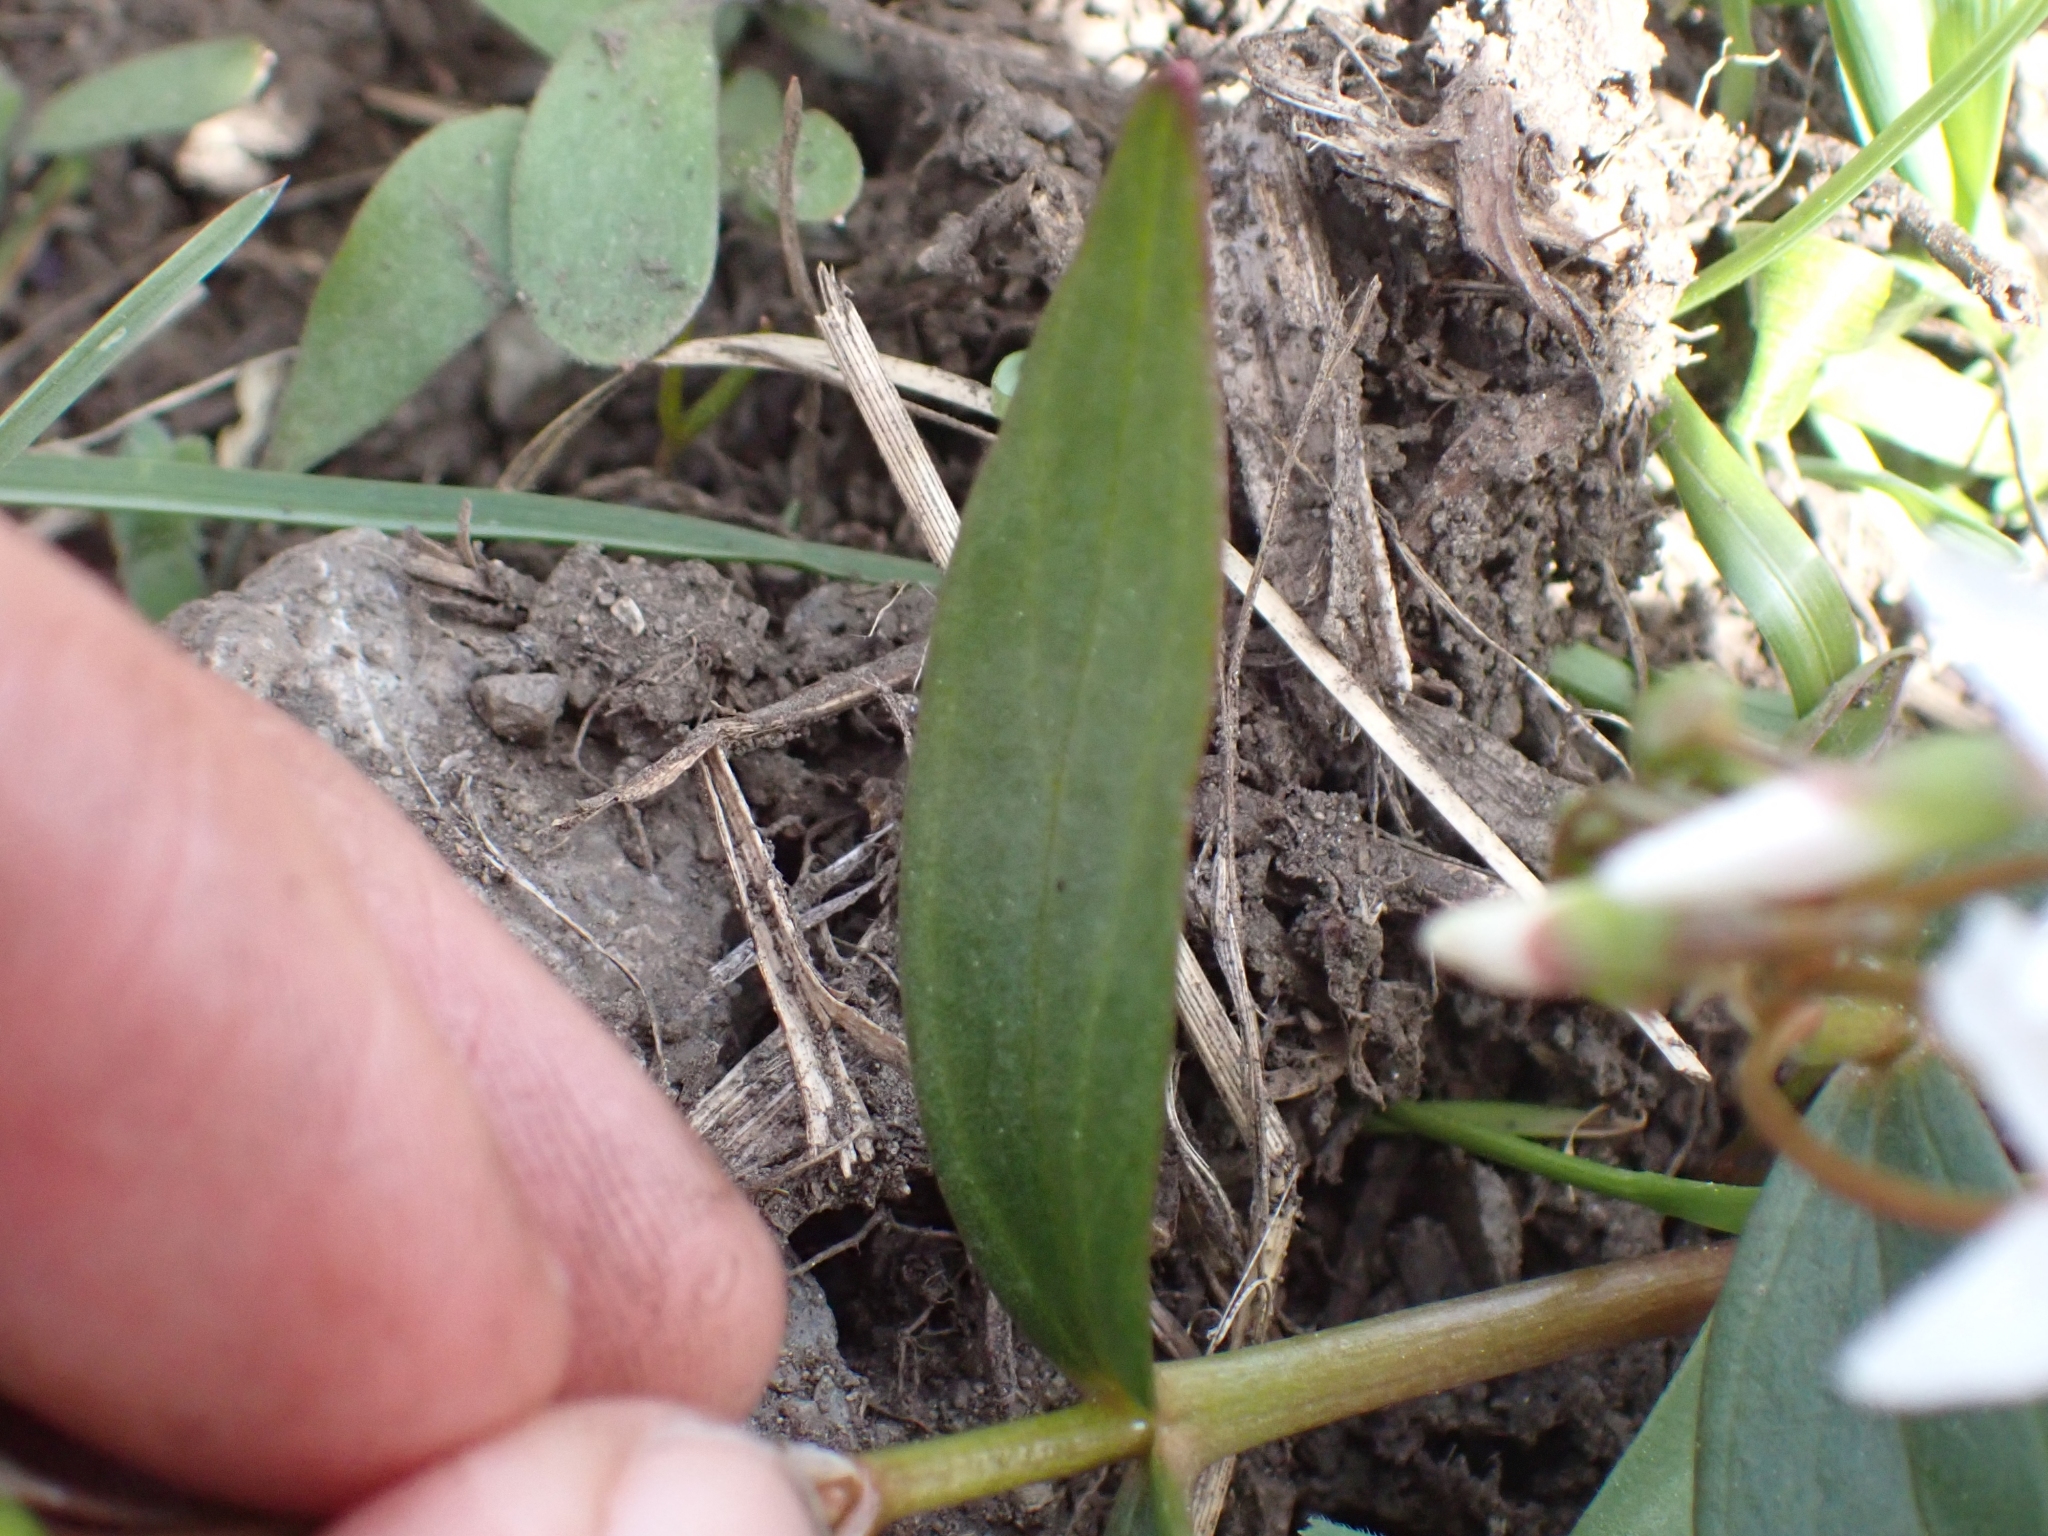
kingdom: Plantae
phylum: Tracheophyta
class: Magnoliopsida
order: Caryophyllales
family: Montiaceae
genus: Claytonia
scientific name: Claytonia lanceolata
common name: Western spring-beauty
